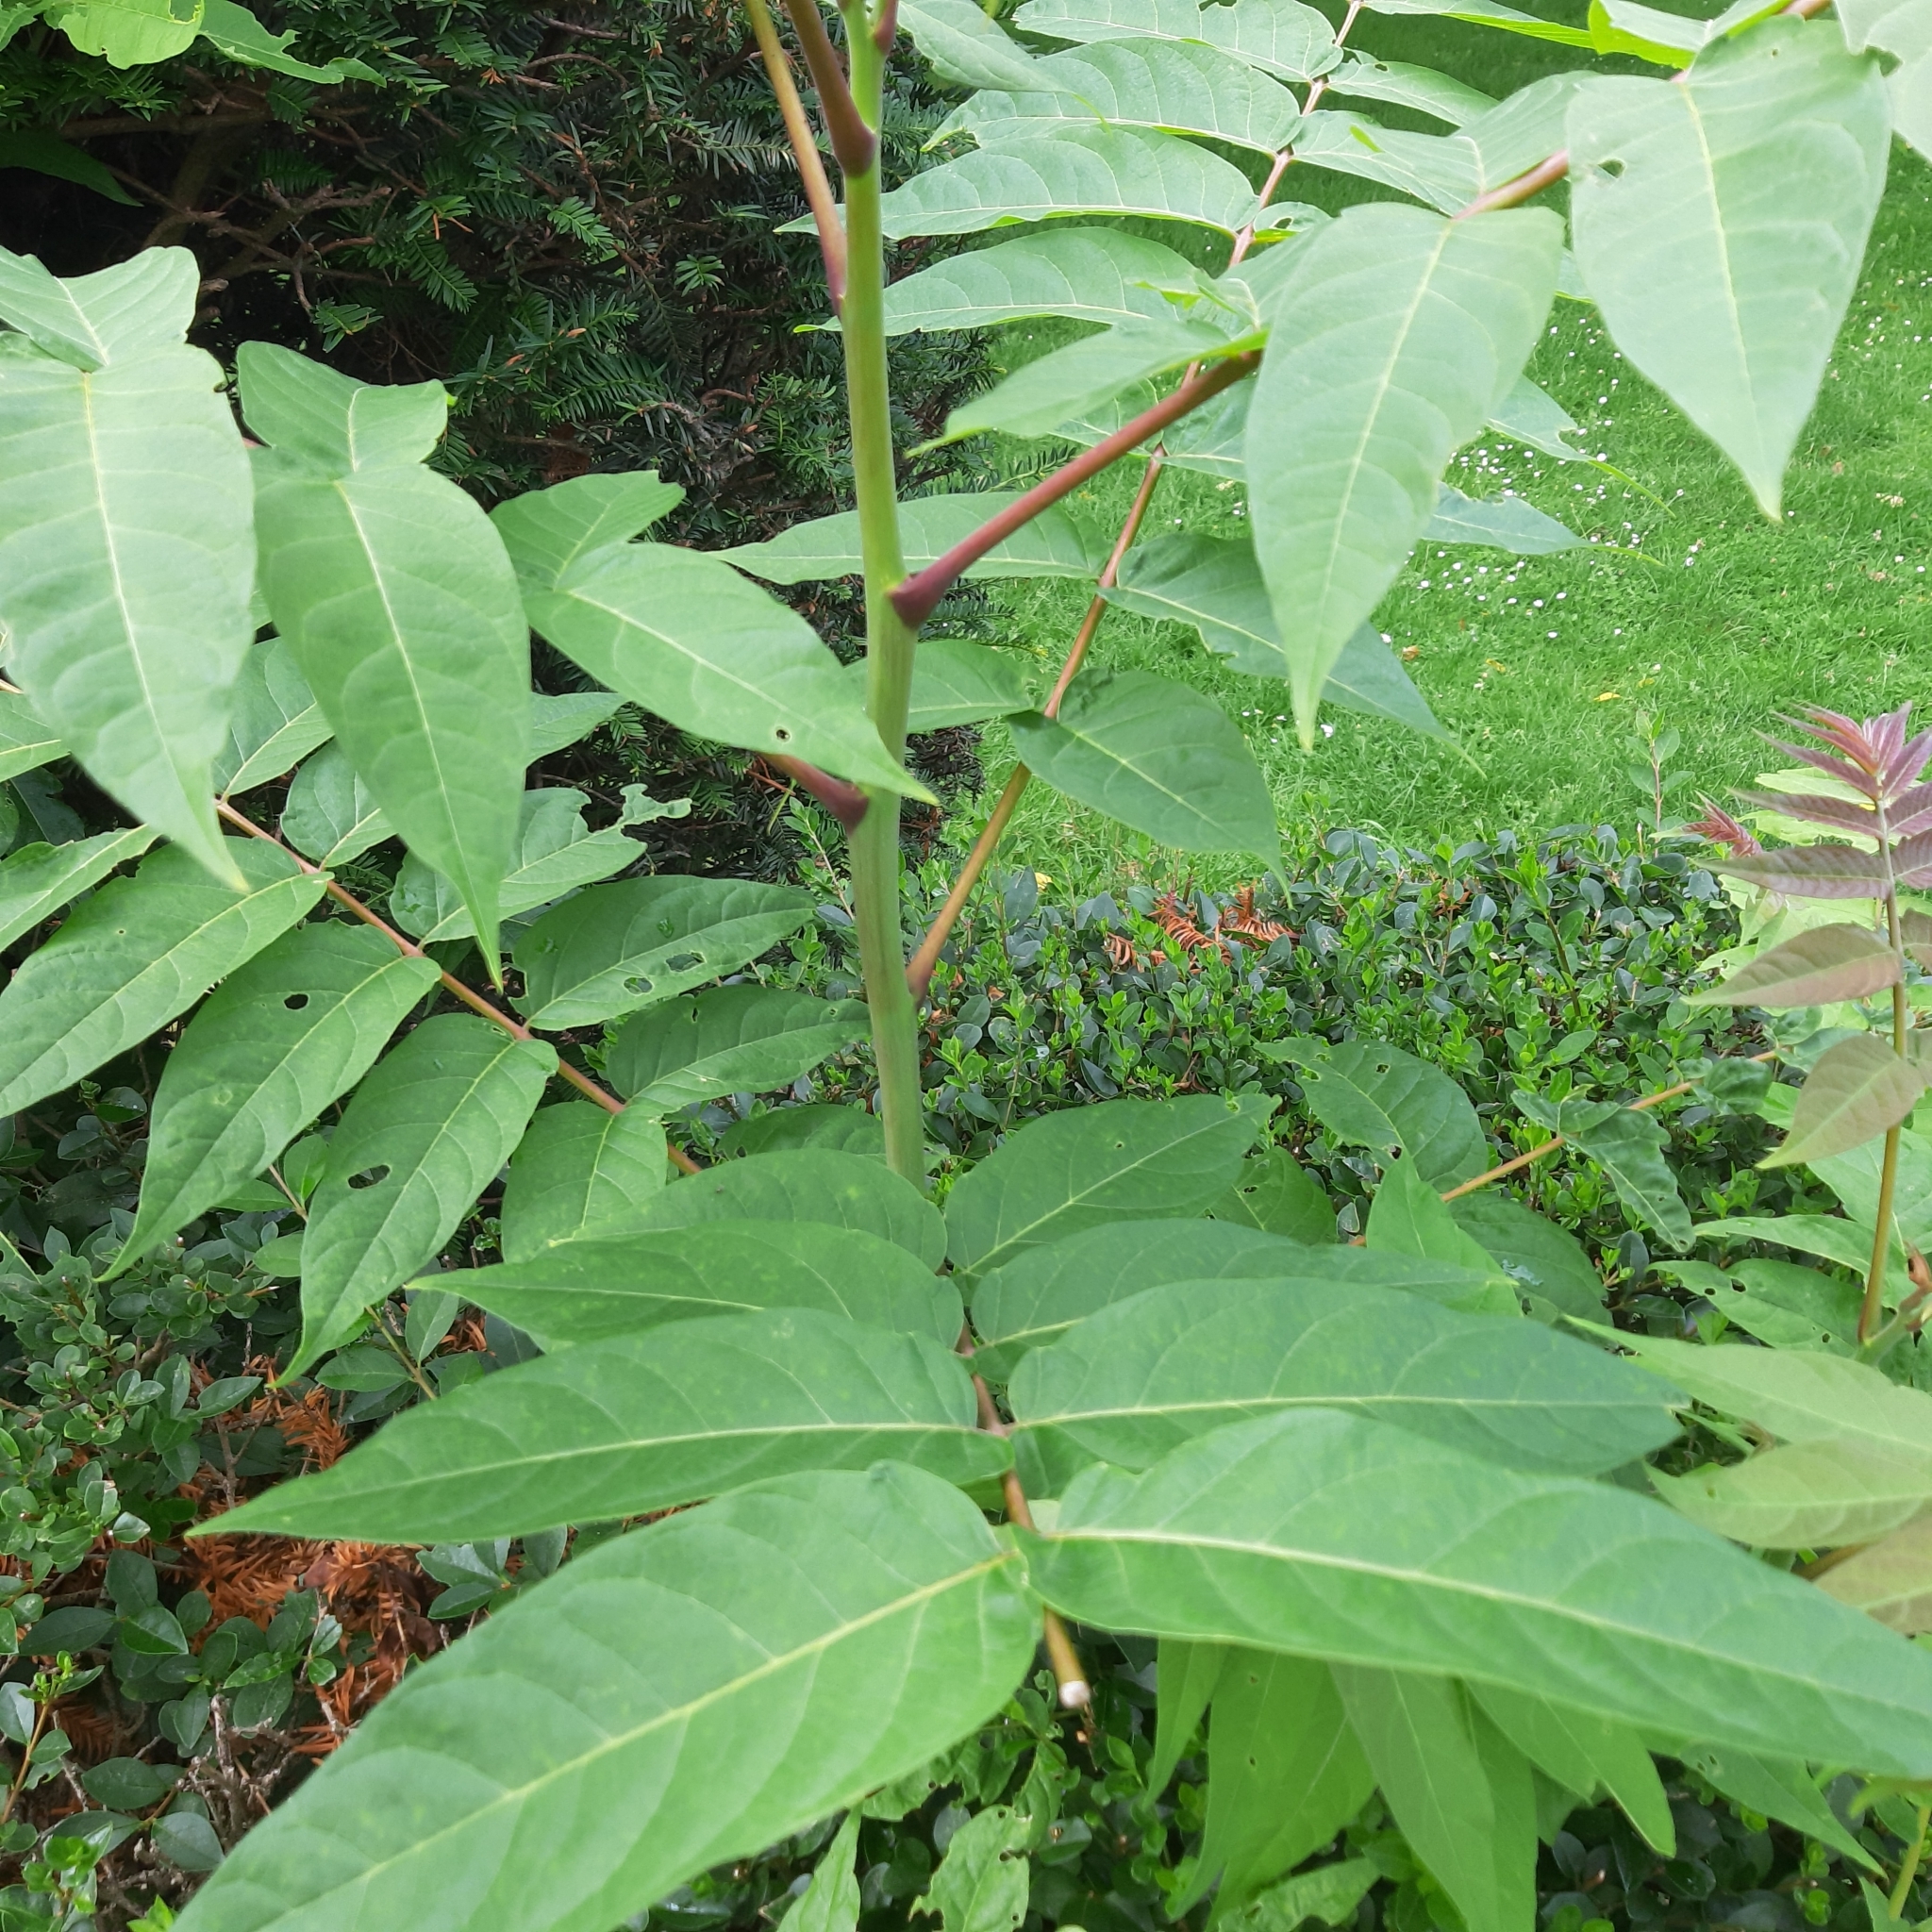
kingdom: Plantae
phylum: Tracheophyta
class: Magnoliopsida
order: Sapindales
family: Simaroubaceae
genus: Ailanthus
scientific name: Ailanthus altissima
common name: Tree-of-heaven
